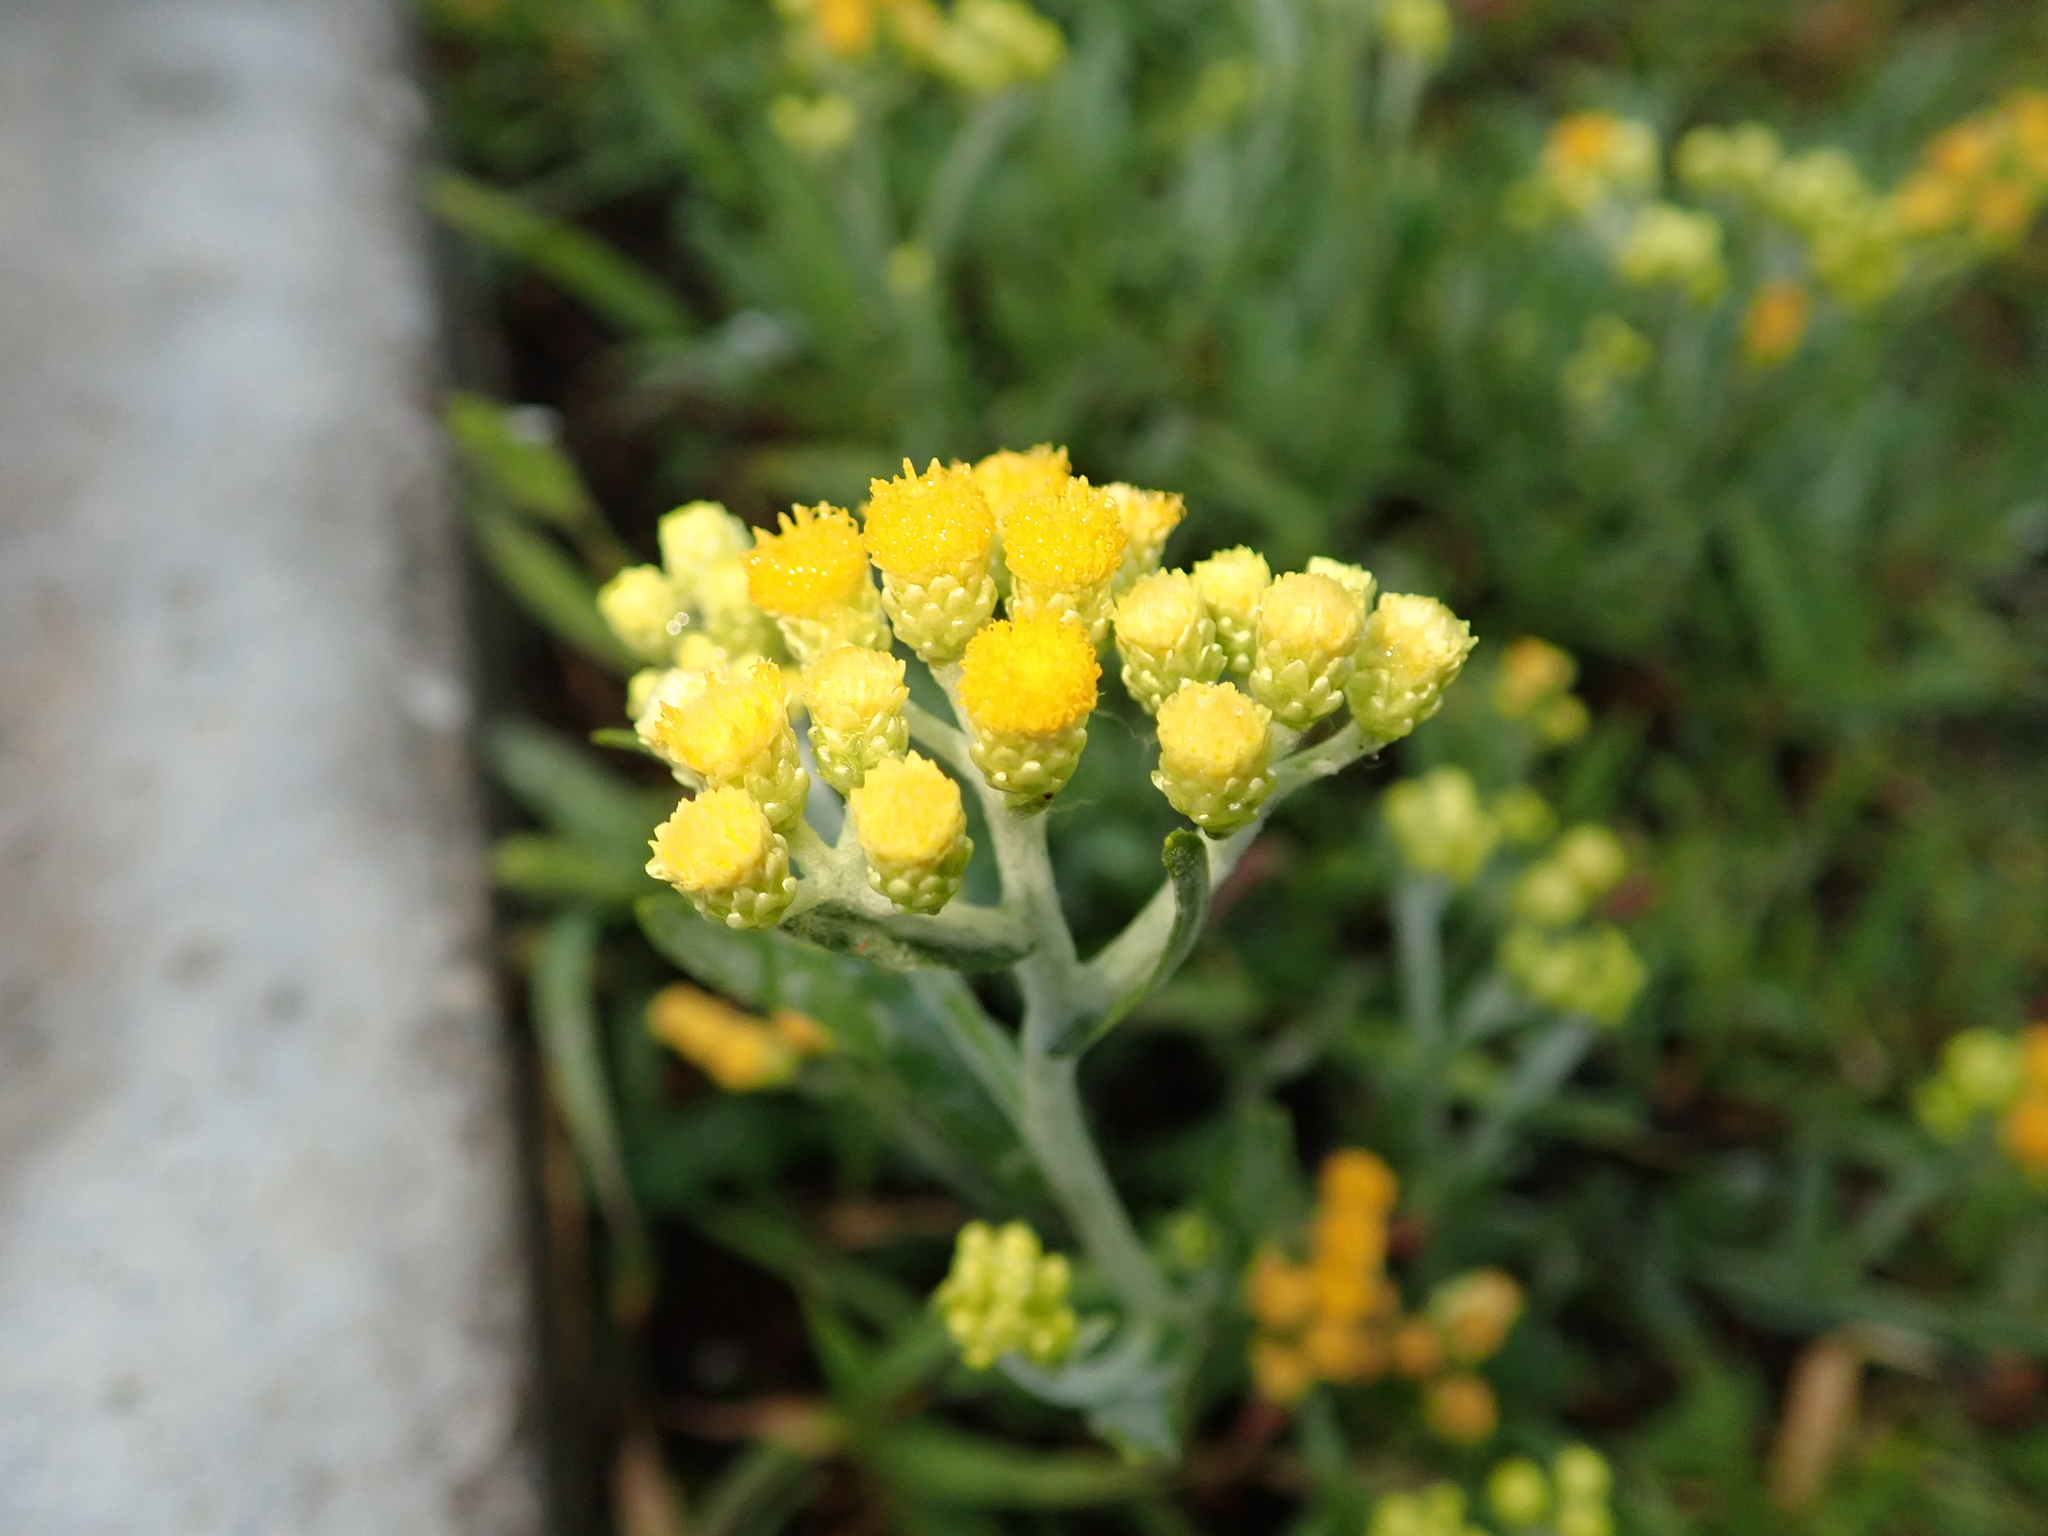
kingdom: Plantae
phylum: Tracheophyta
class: Magnoliopsida
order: Asterales
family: Asteraceae
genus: Helichrysum
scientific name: Helichrysum arenarium
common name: Strawflower
